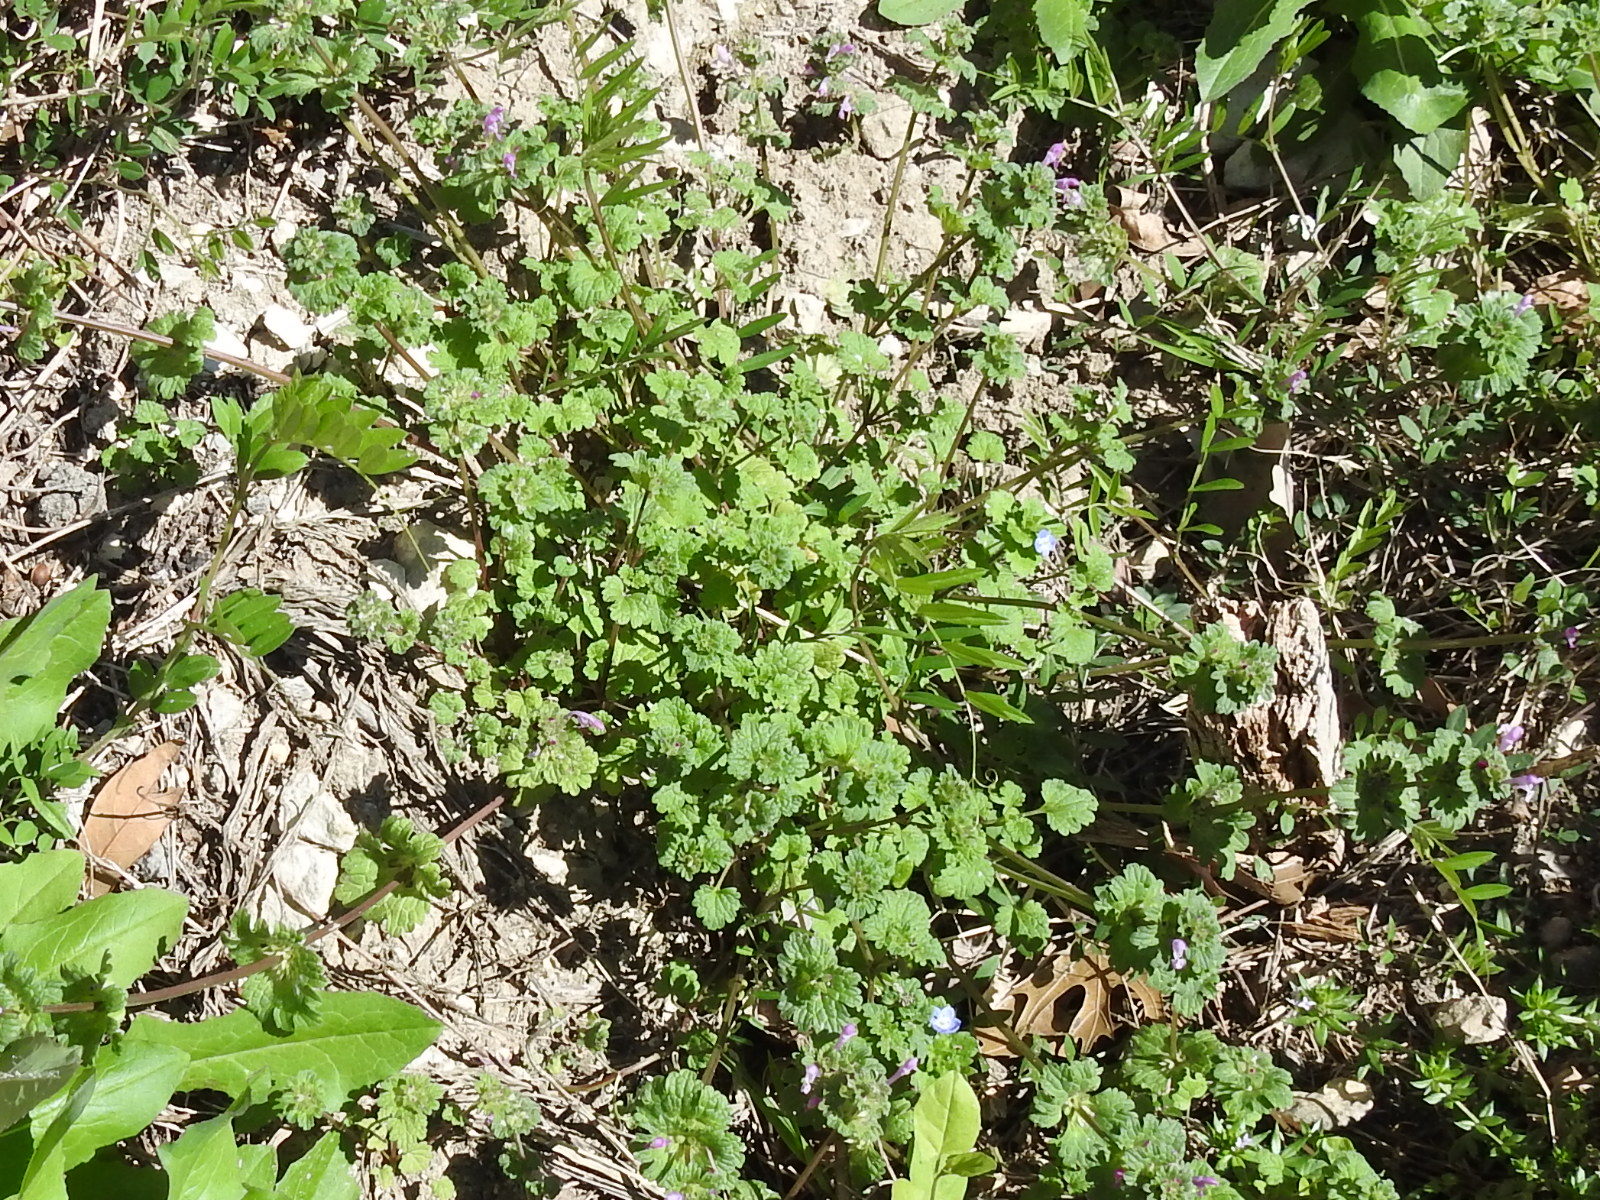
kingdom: Plantae
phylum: Tracheophyta
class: Magnoliopsida
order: Lamiales
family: Lamiaceae
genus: Lamium
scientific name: Lamium amplexicaule
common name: Henbit dead-nettle
